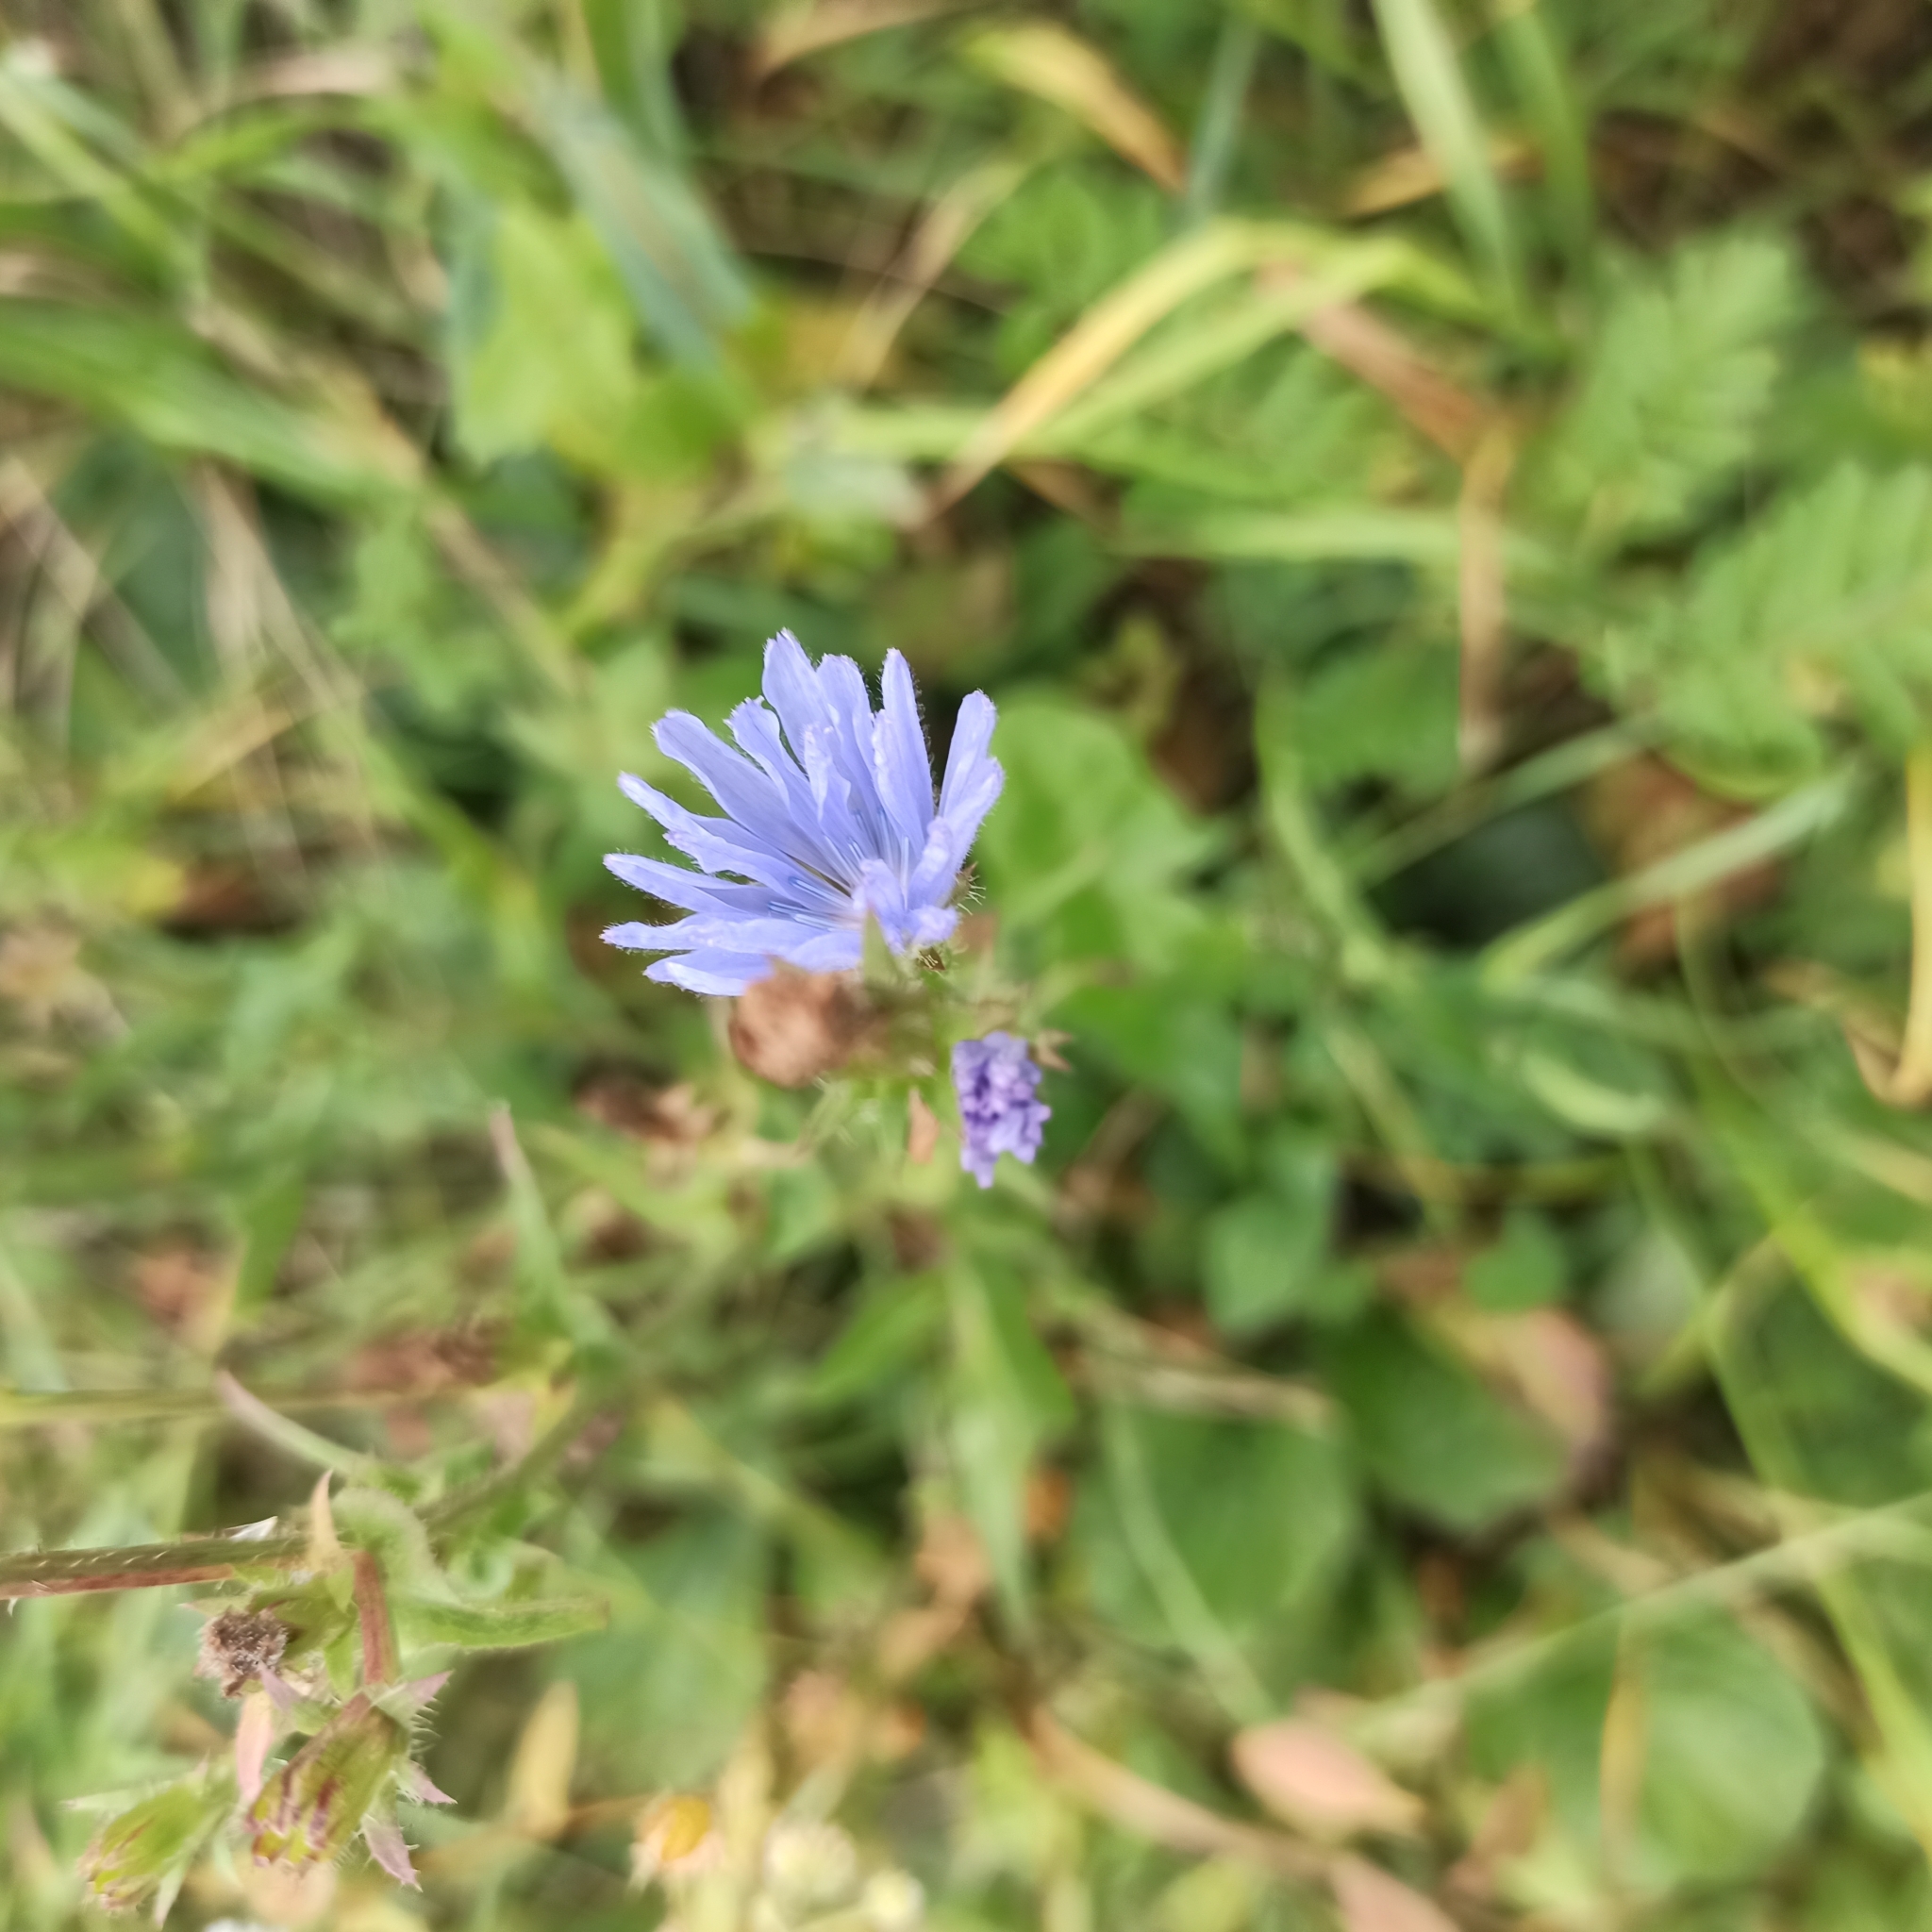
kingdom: Plantae
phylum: Tracheophyta
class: Magnoliopsida
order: Asterales
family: Asteraceae
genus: Cichorium
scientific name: Cichorium intybus
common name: Chicory
